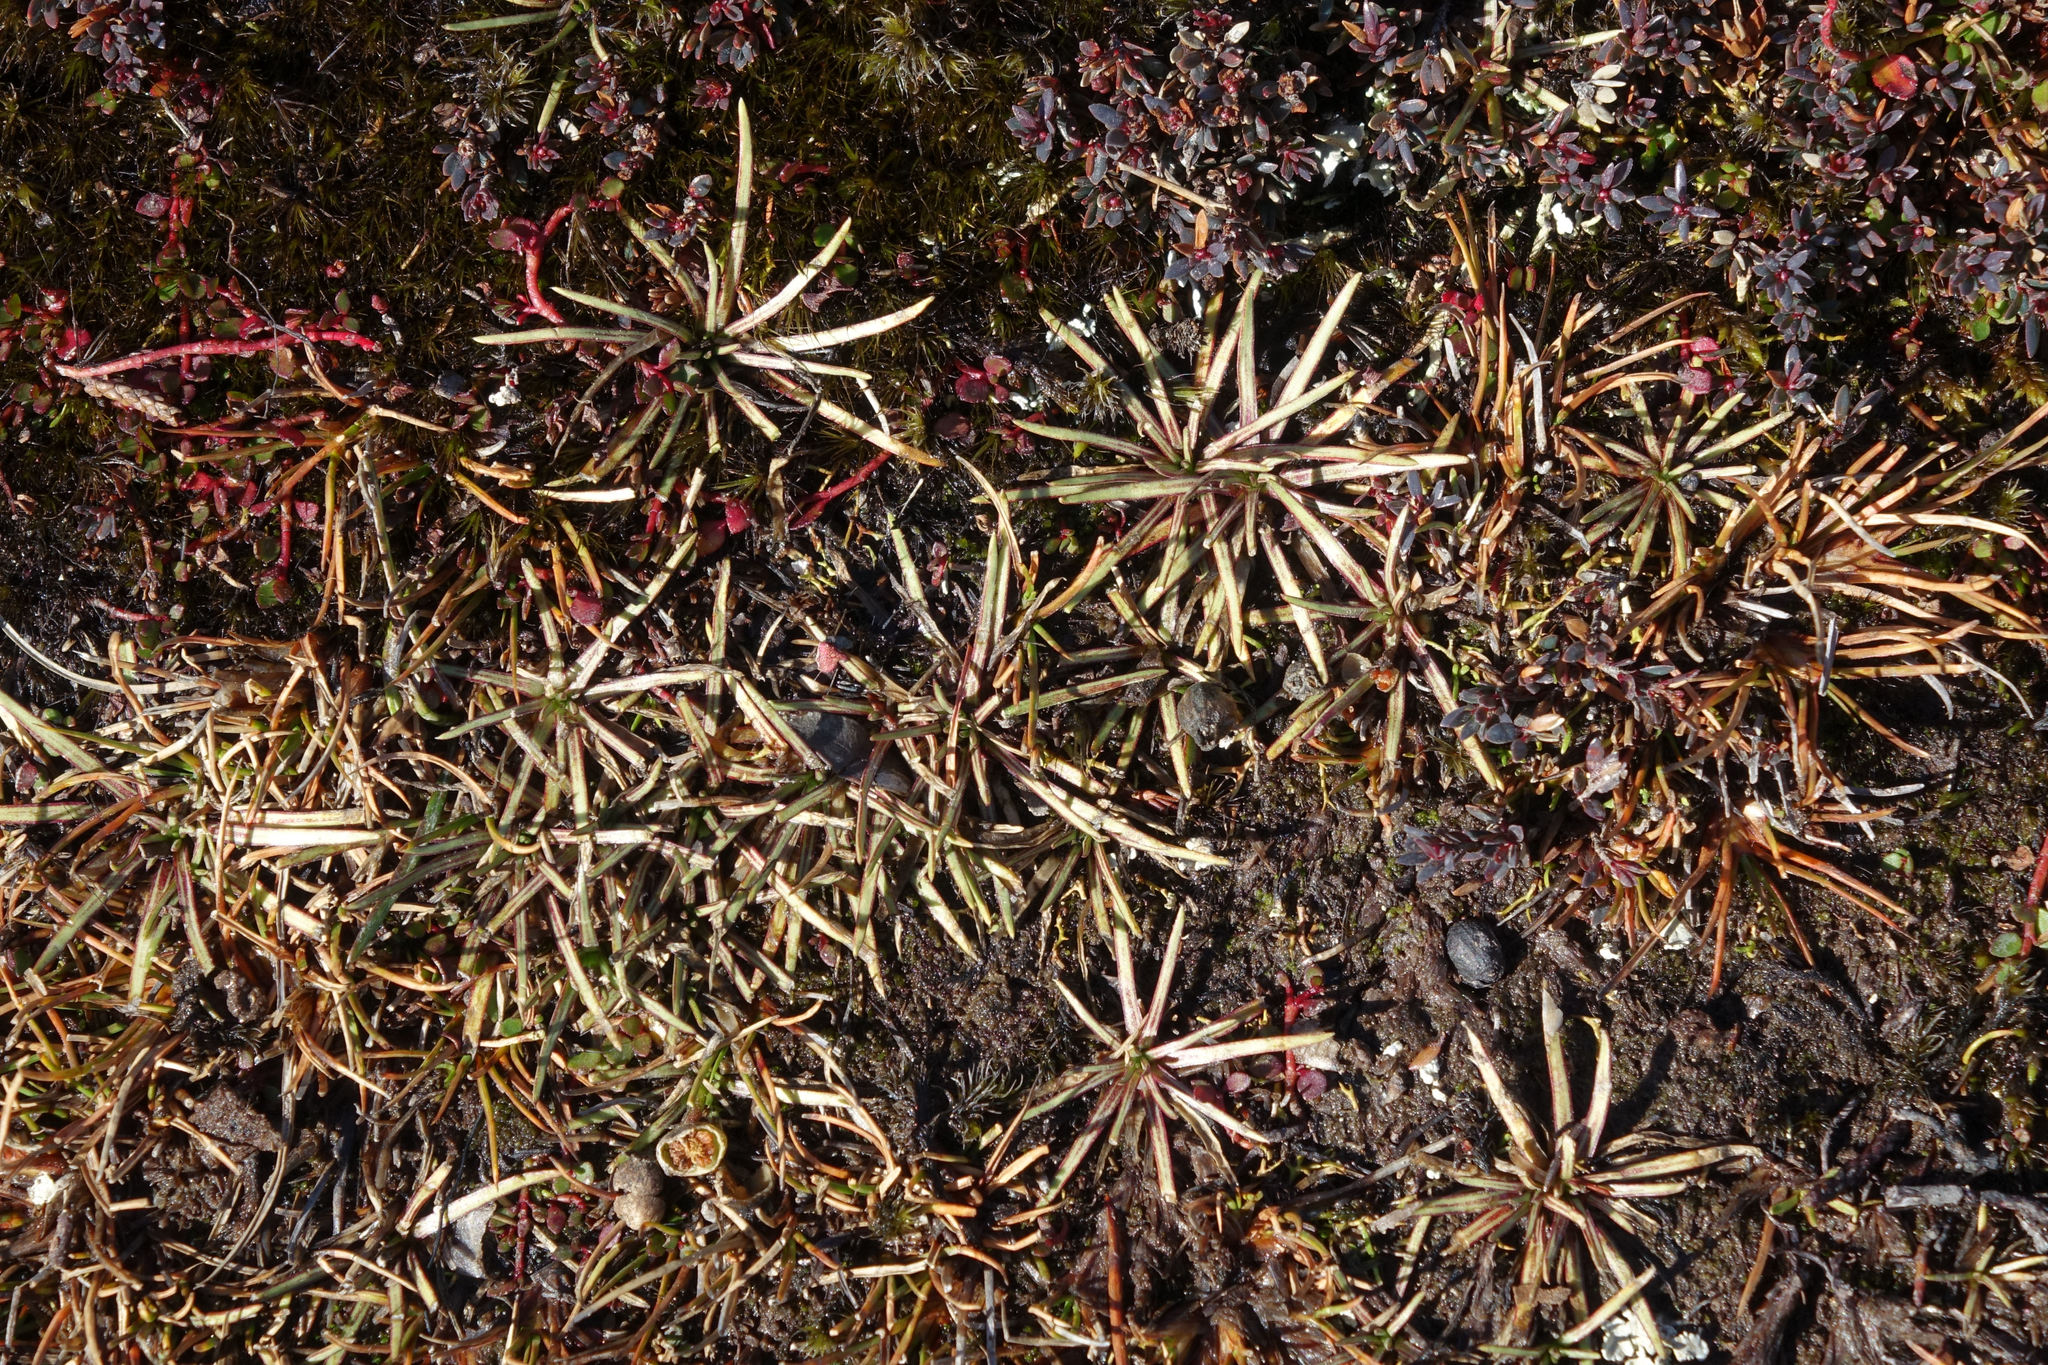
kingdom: Plantae
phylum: Tracheophyta
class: Magnoliopsida
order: Asterales
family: Stylidiaceae
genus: Oreostylidium
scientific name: Oreostylidium subulatum
